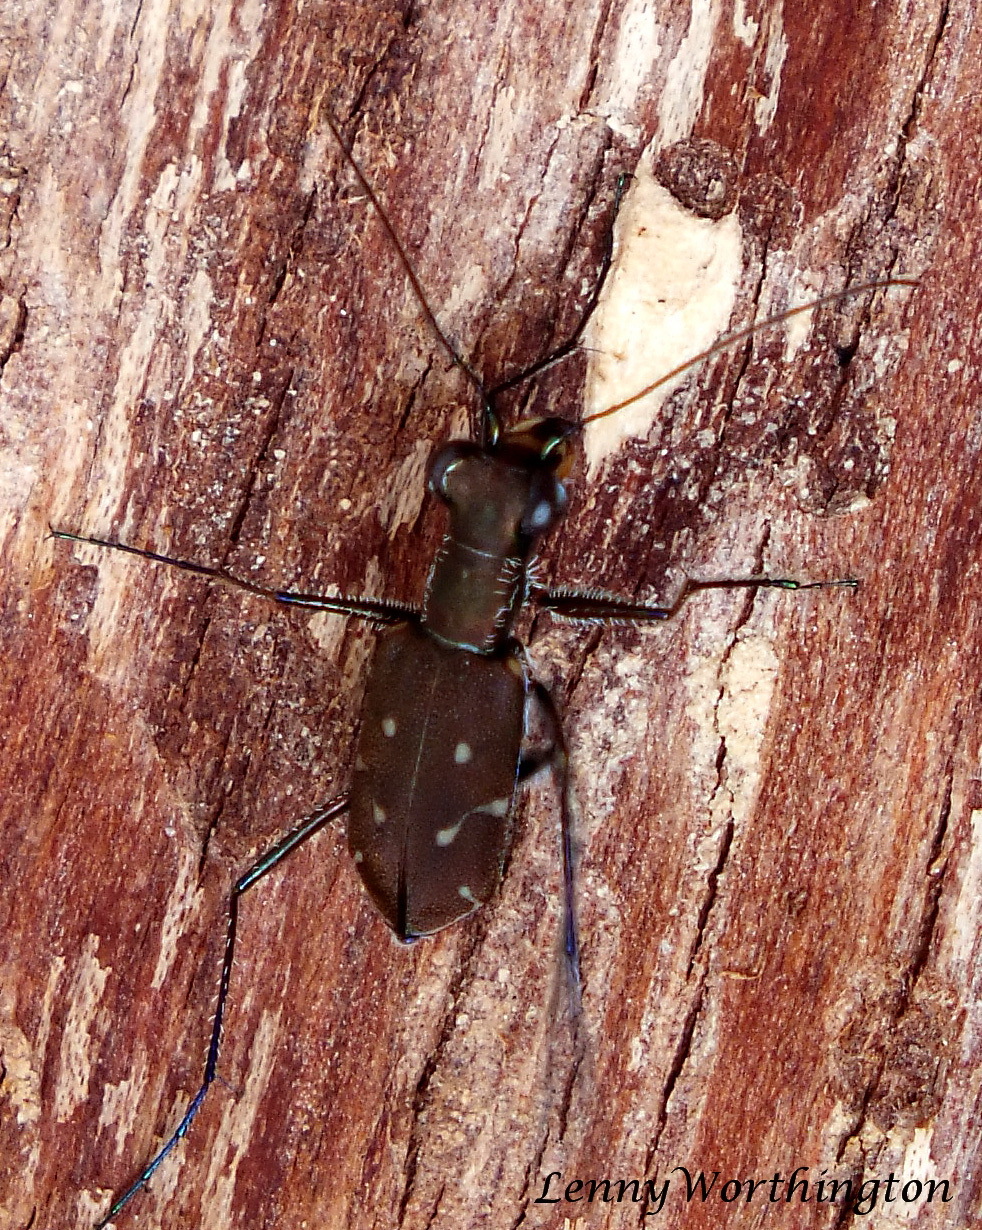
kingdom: Animalia
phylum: Arthropoda
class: Insecta
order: Coleoptera
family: Carabidae
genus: Cylindera
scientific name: Cylindera spinolae
